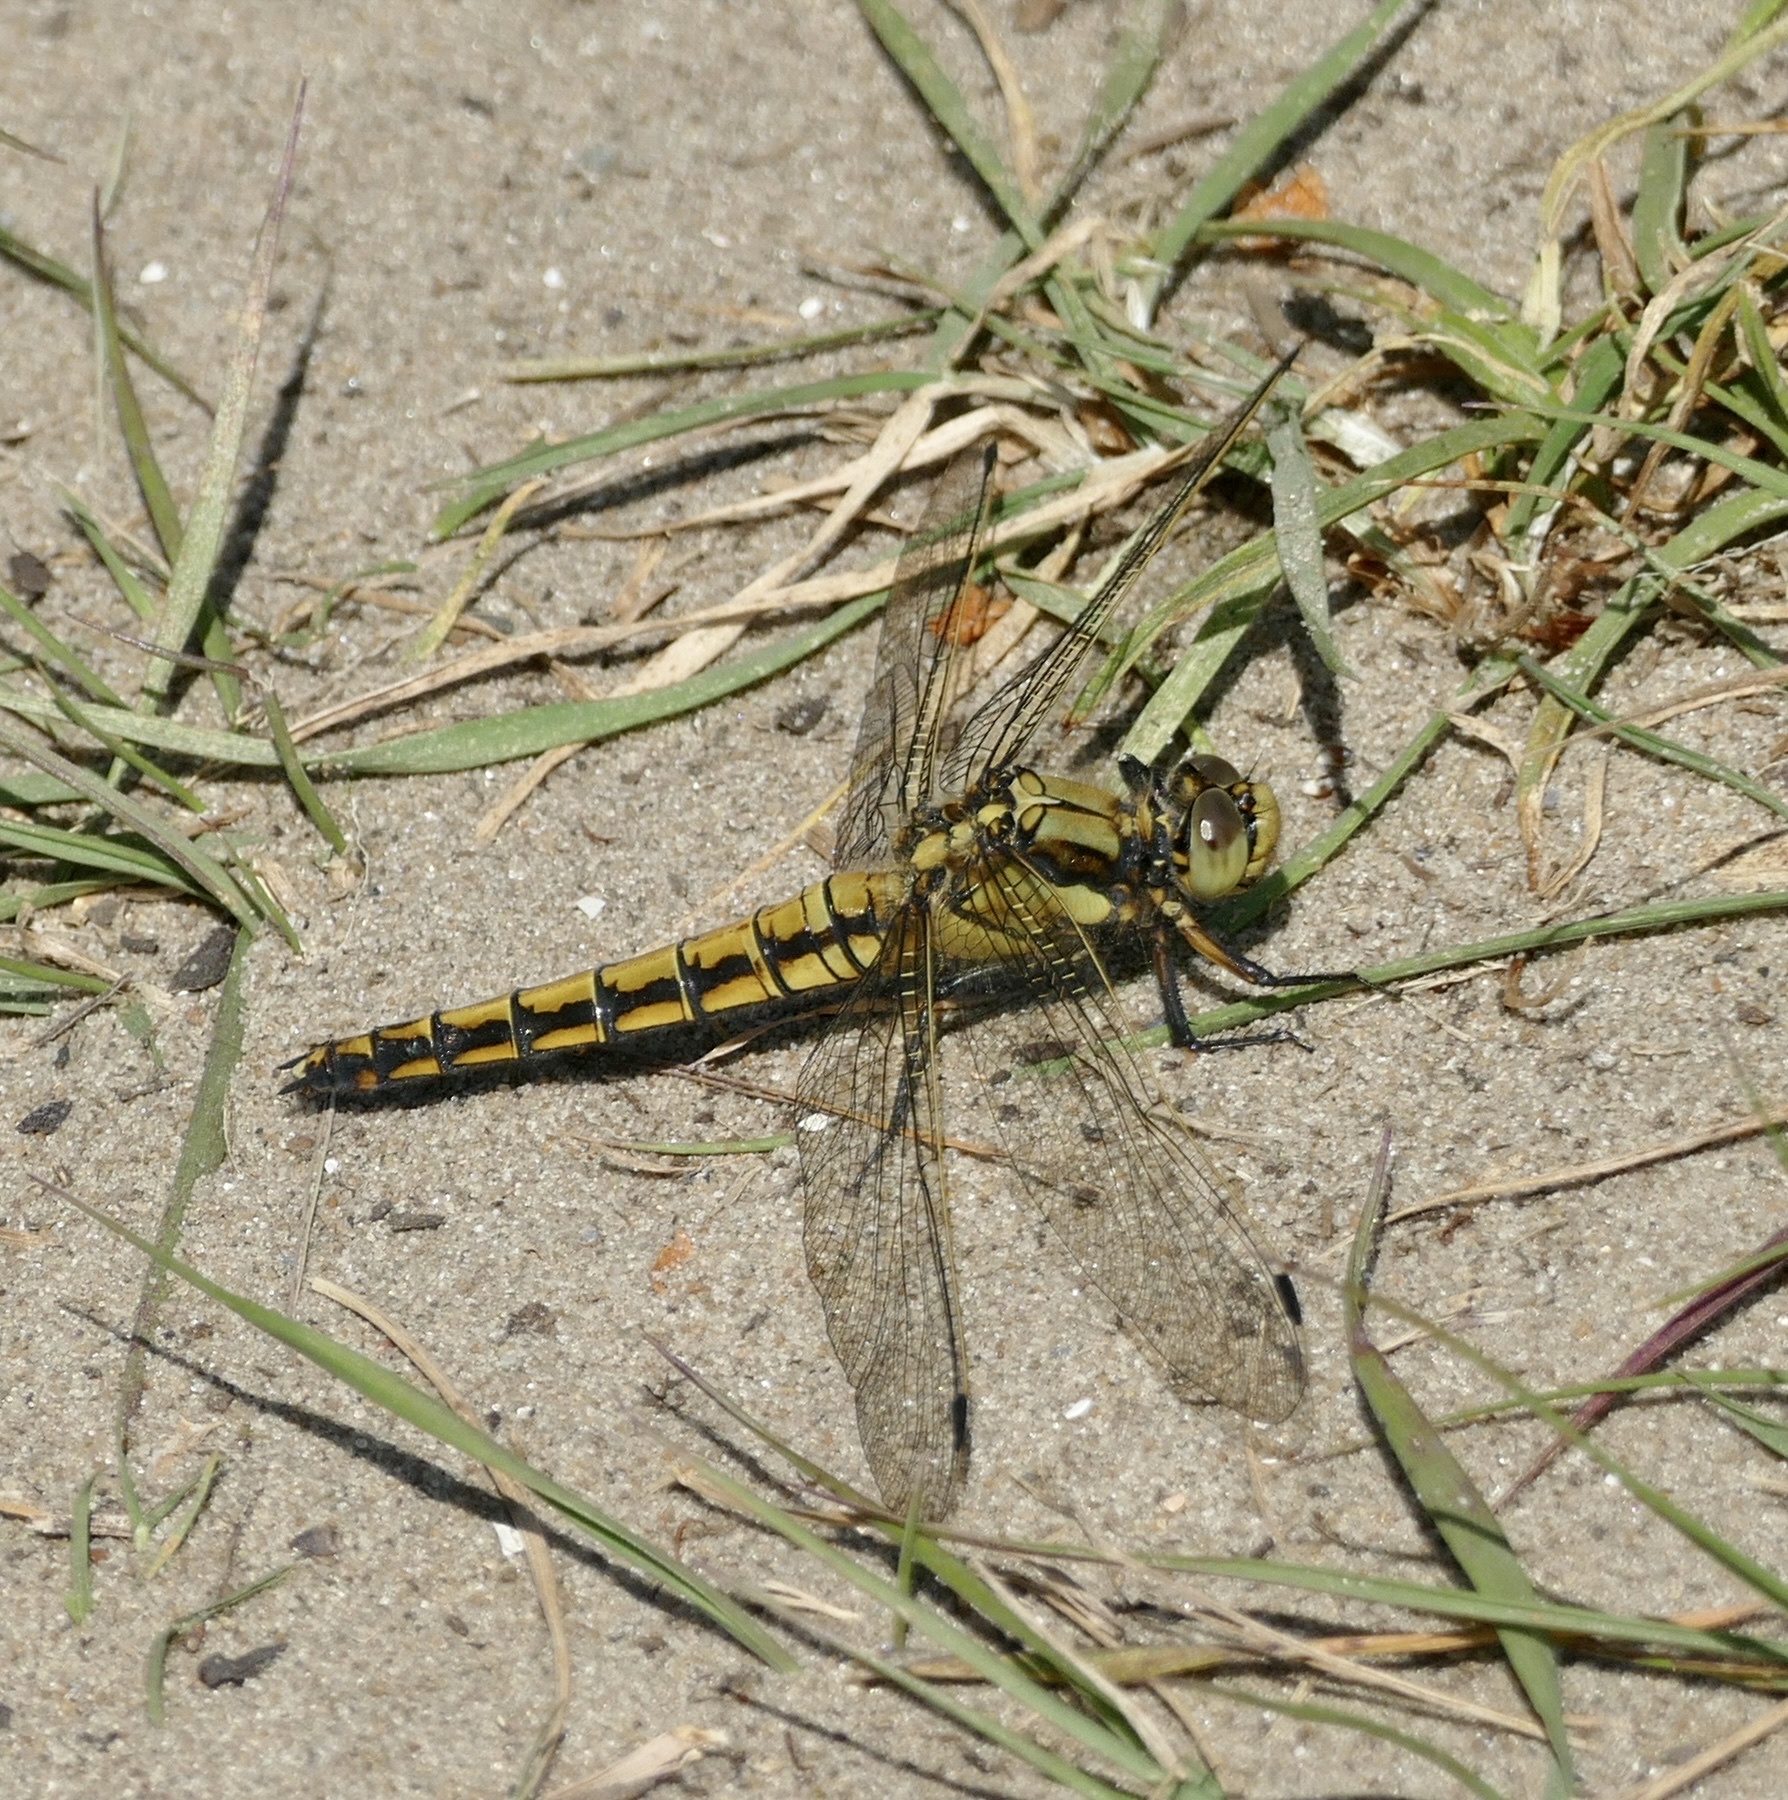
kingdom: Animalia
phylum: Arthropoda
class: Insecta
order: Odonata
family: Libellulidae
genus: Orthetrum
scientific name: Orthetrum cancellatum
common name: Black-tailed skimmer
